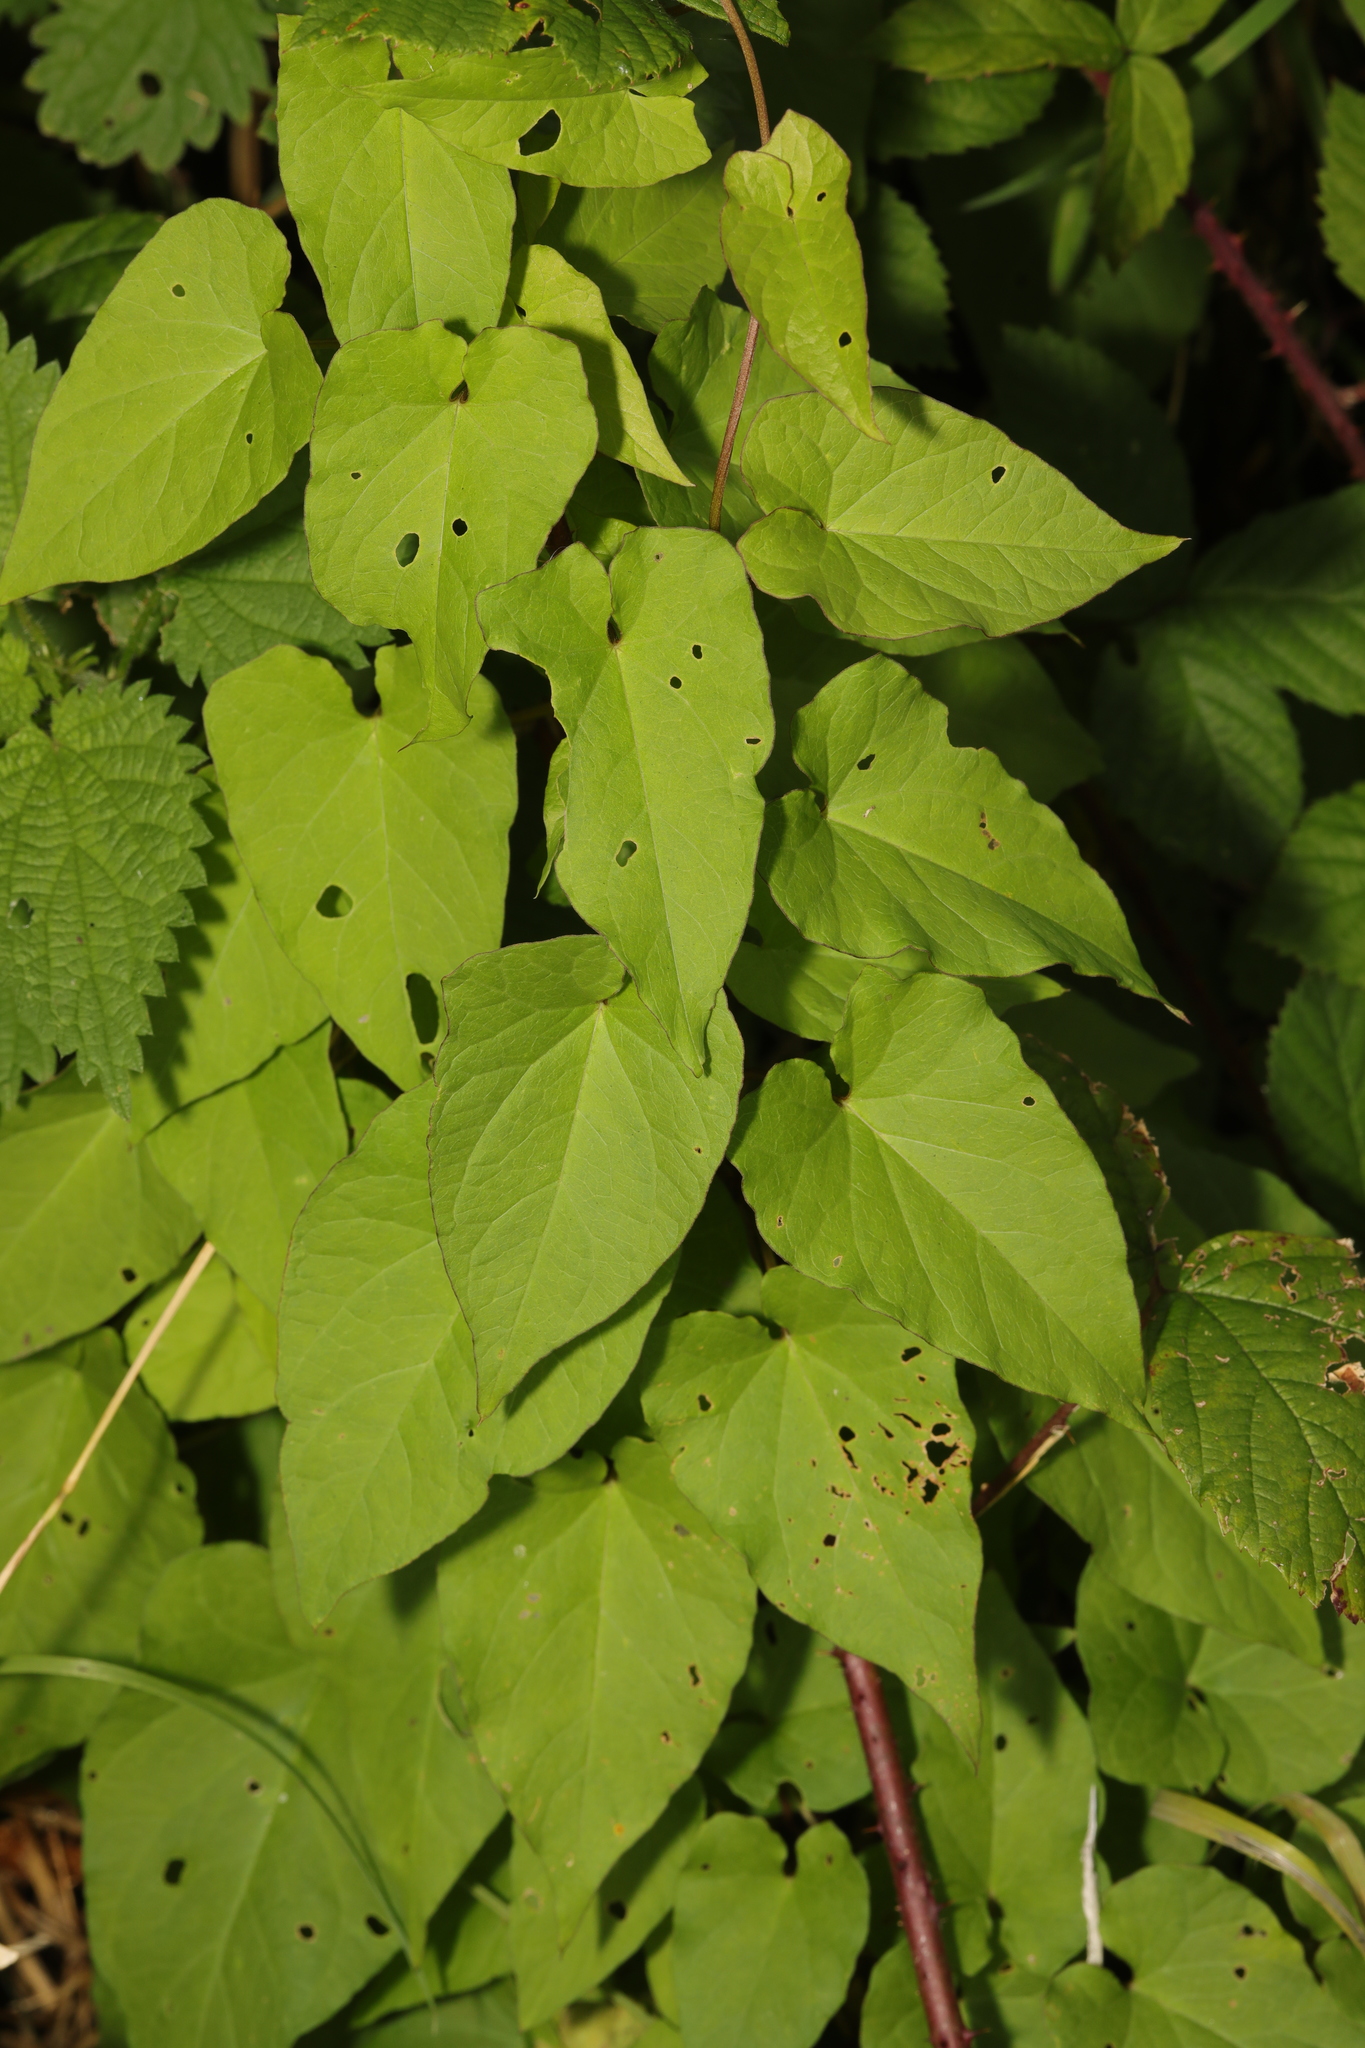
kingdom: Plantae
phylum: Tracheophyta
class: Magnoliopsida
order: Solanales
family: Convolvulaceae
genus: Calystegia
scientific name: Calystegia
